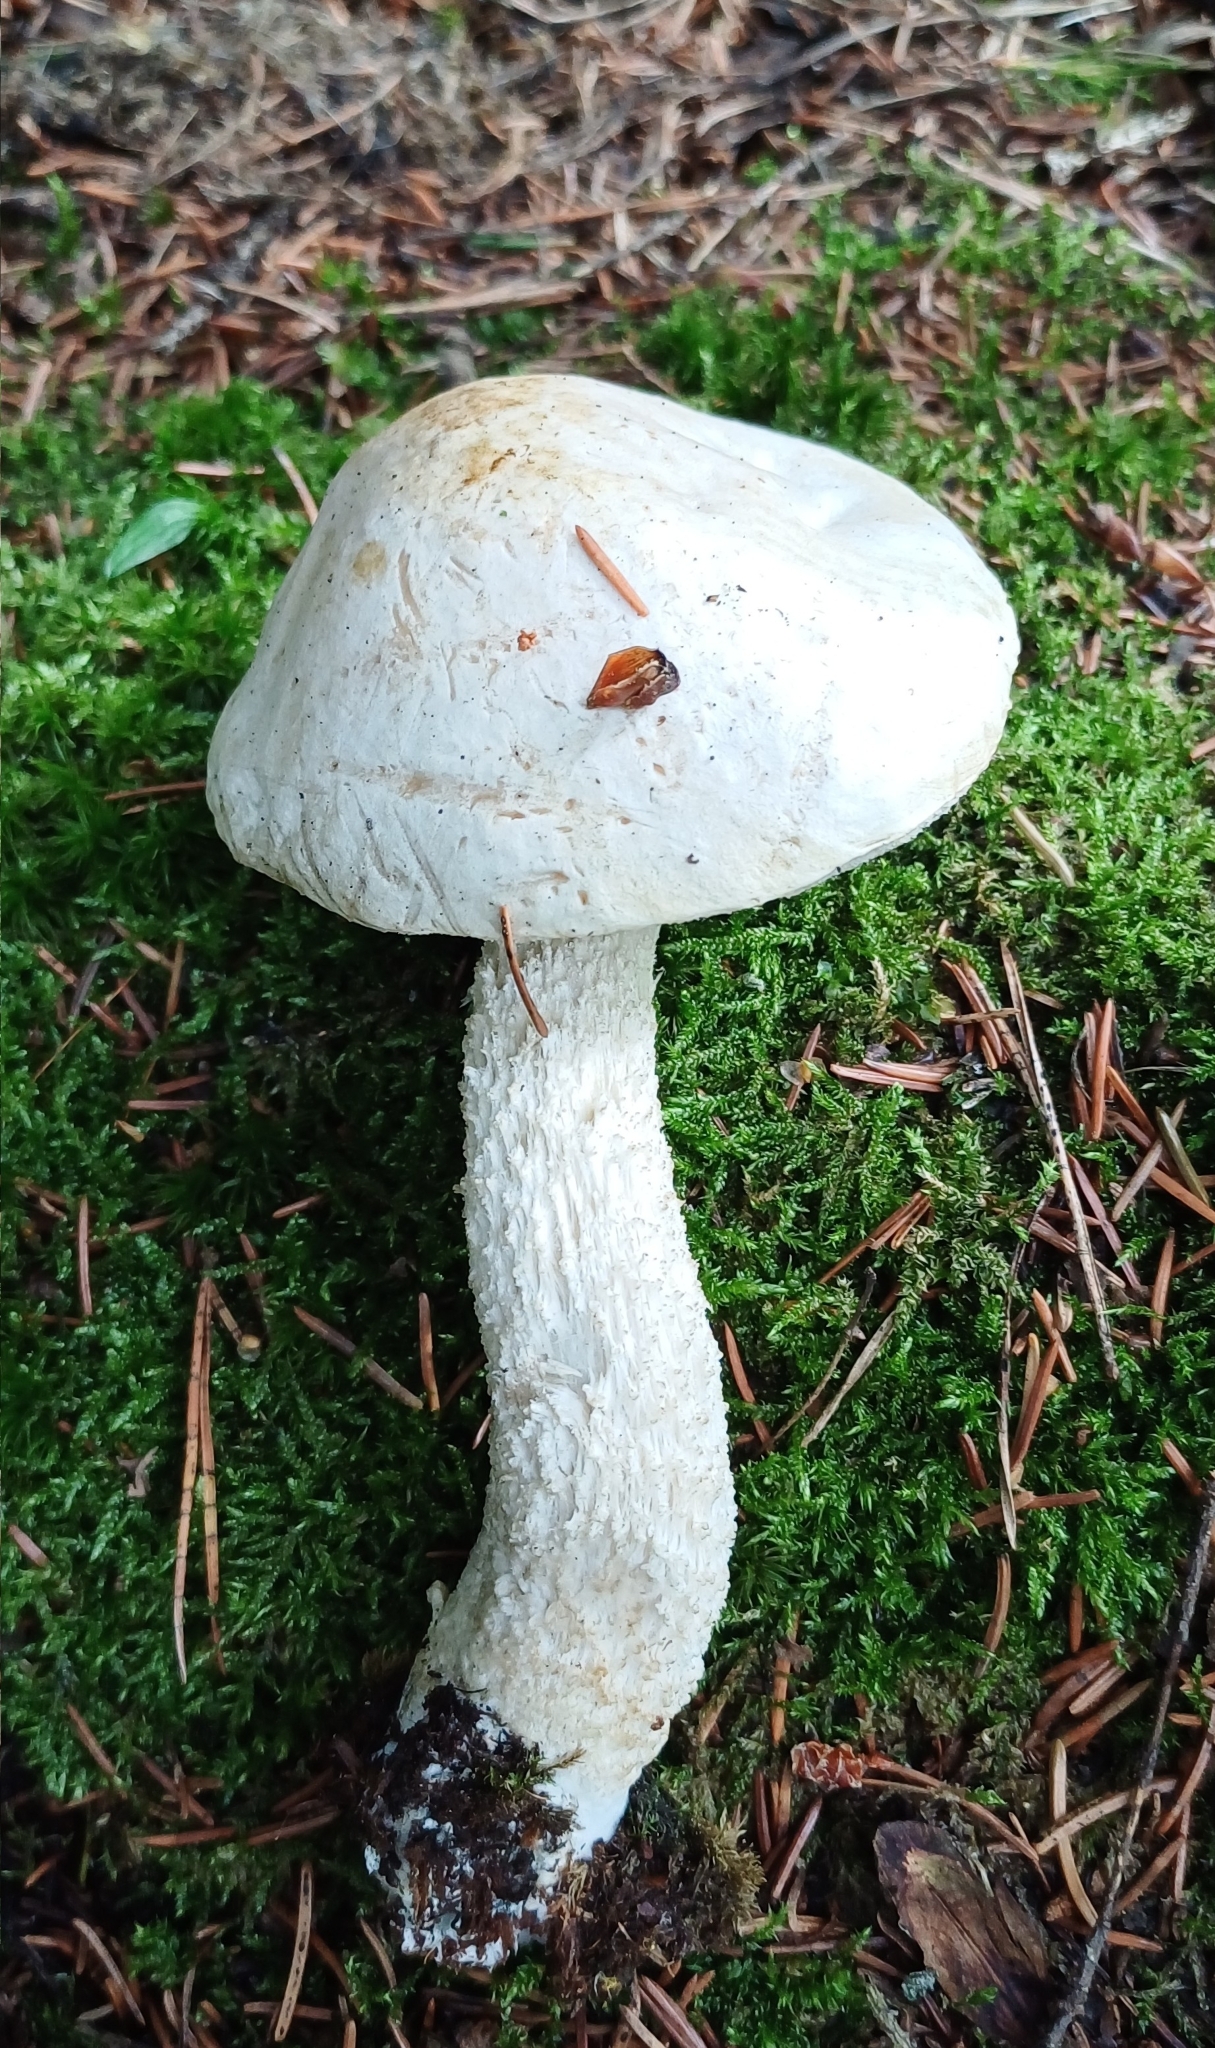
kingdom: Fungi
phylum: Basidiomycota
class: Agaricomycetes
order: Boletales
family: Boletaceae
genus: Leccinum
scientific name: Leccinum holopus
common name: Ghost bolete
